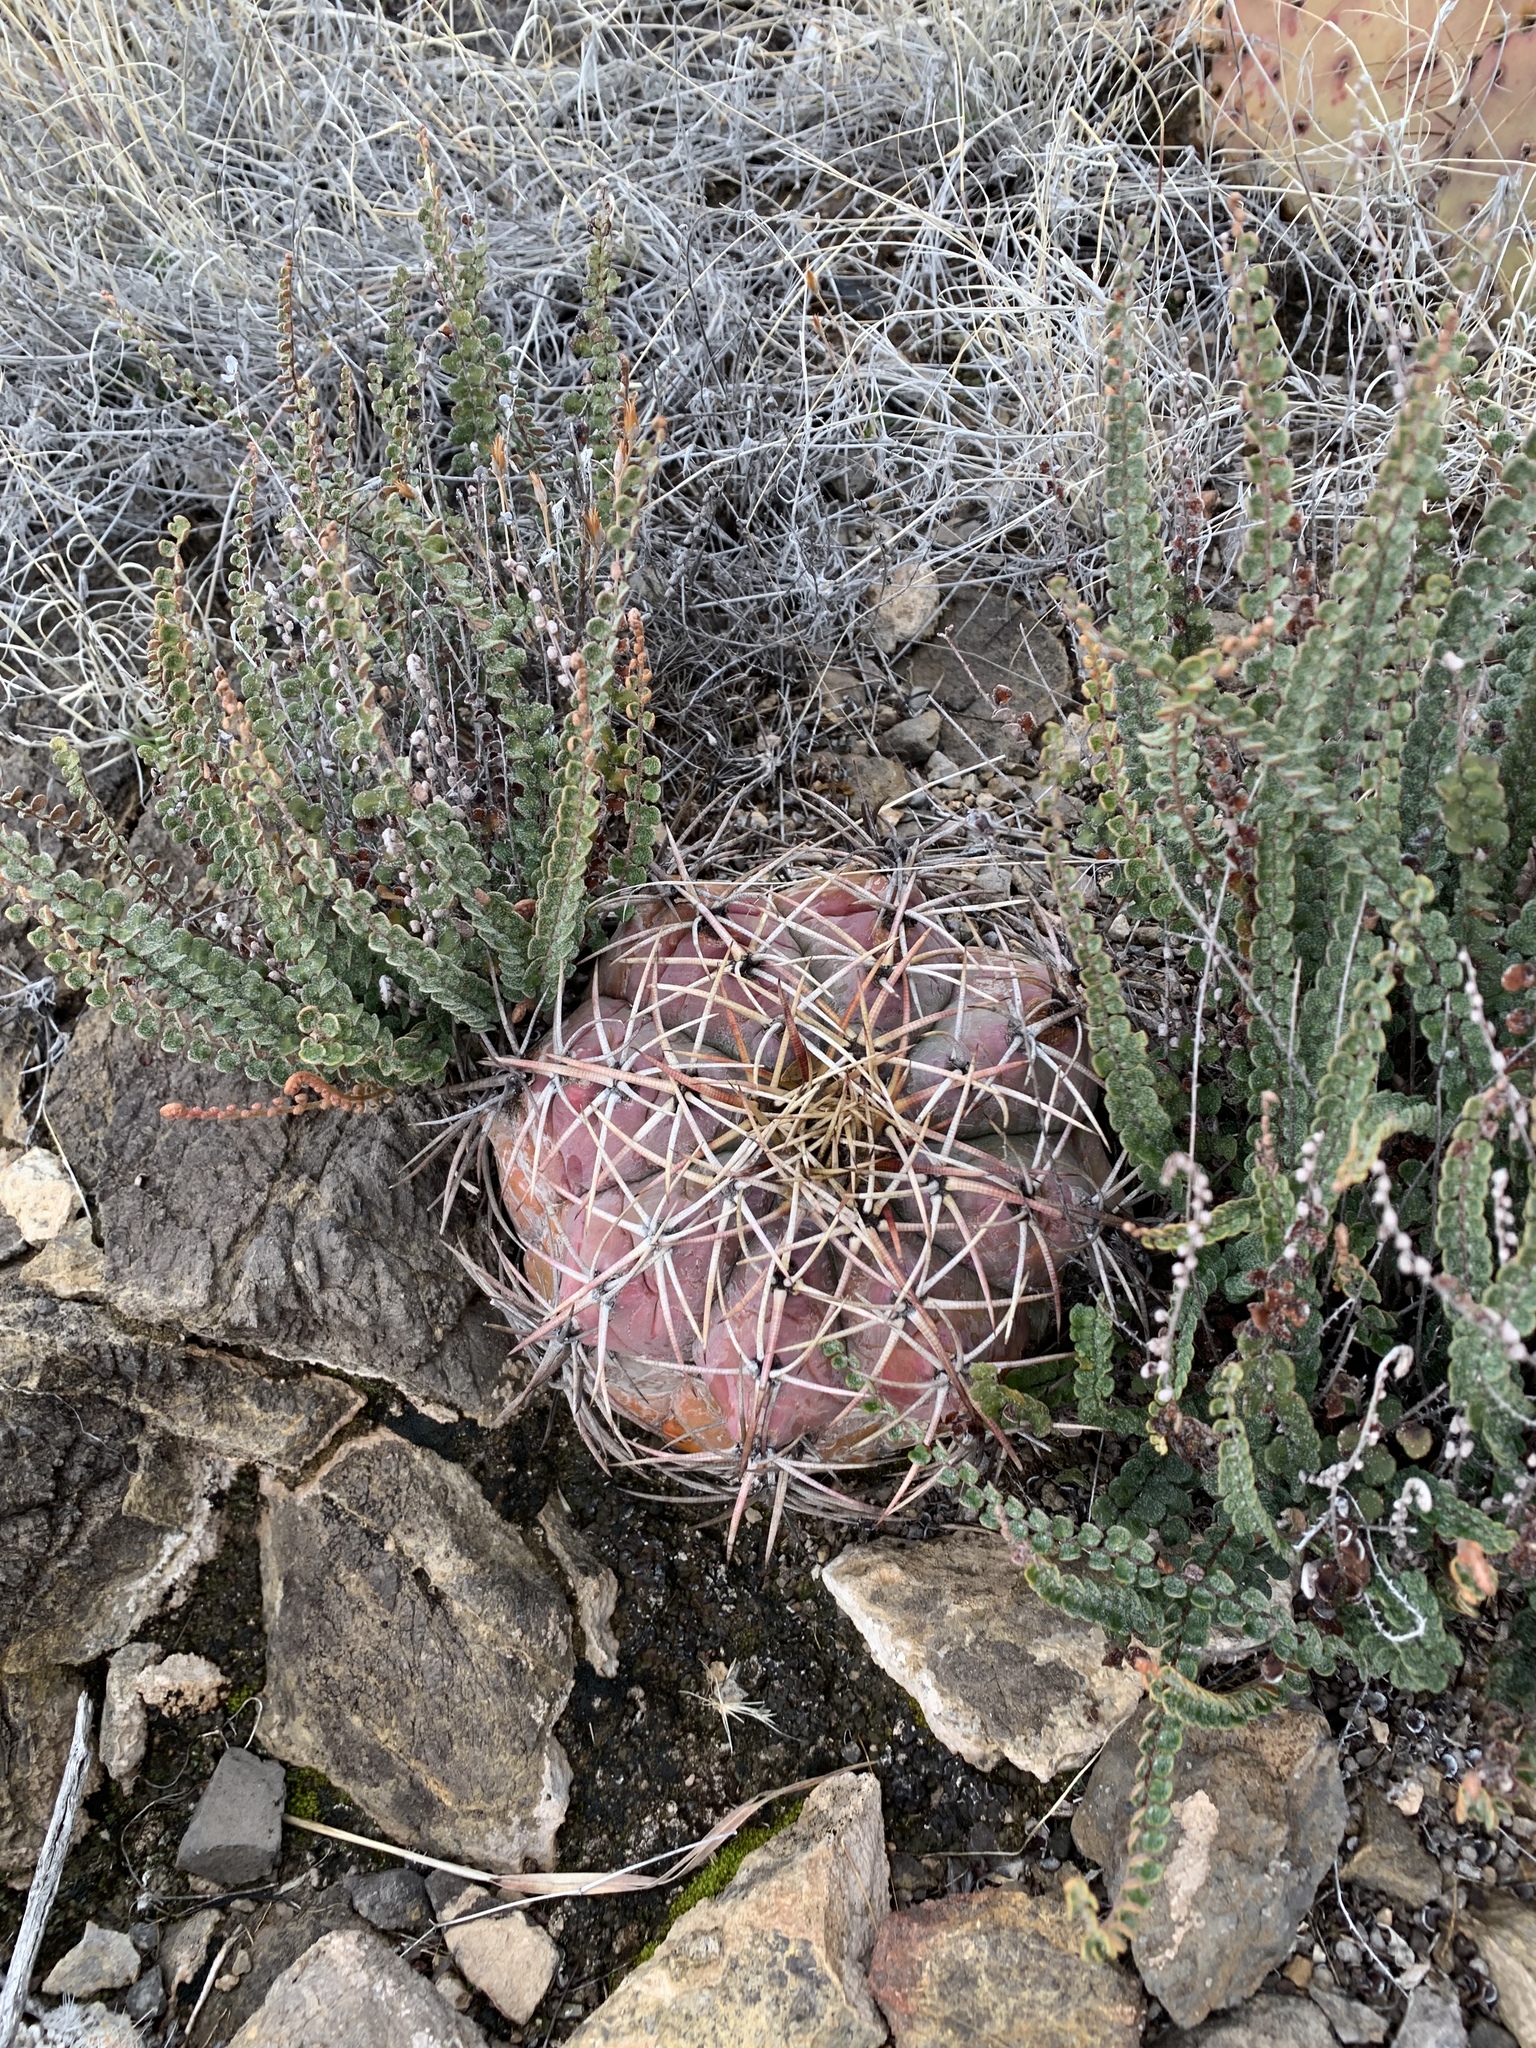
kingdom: Plantae
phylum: Tracheophyta
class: Magnoliopsida
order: Caryophyllales
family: Cactaceae
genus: Echinocactus
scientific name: Echinocactus horizonthalonius
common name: Devilshead
